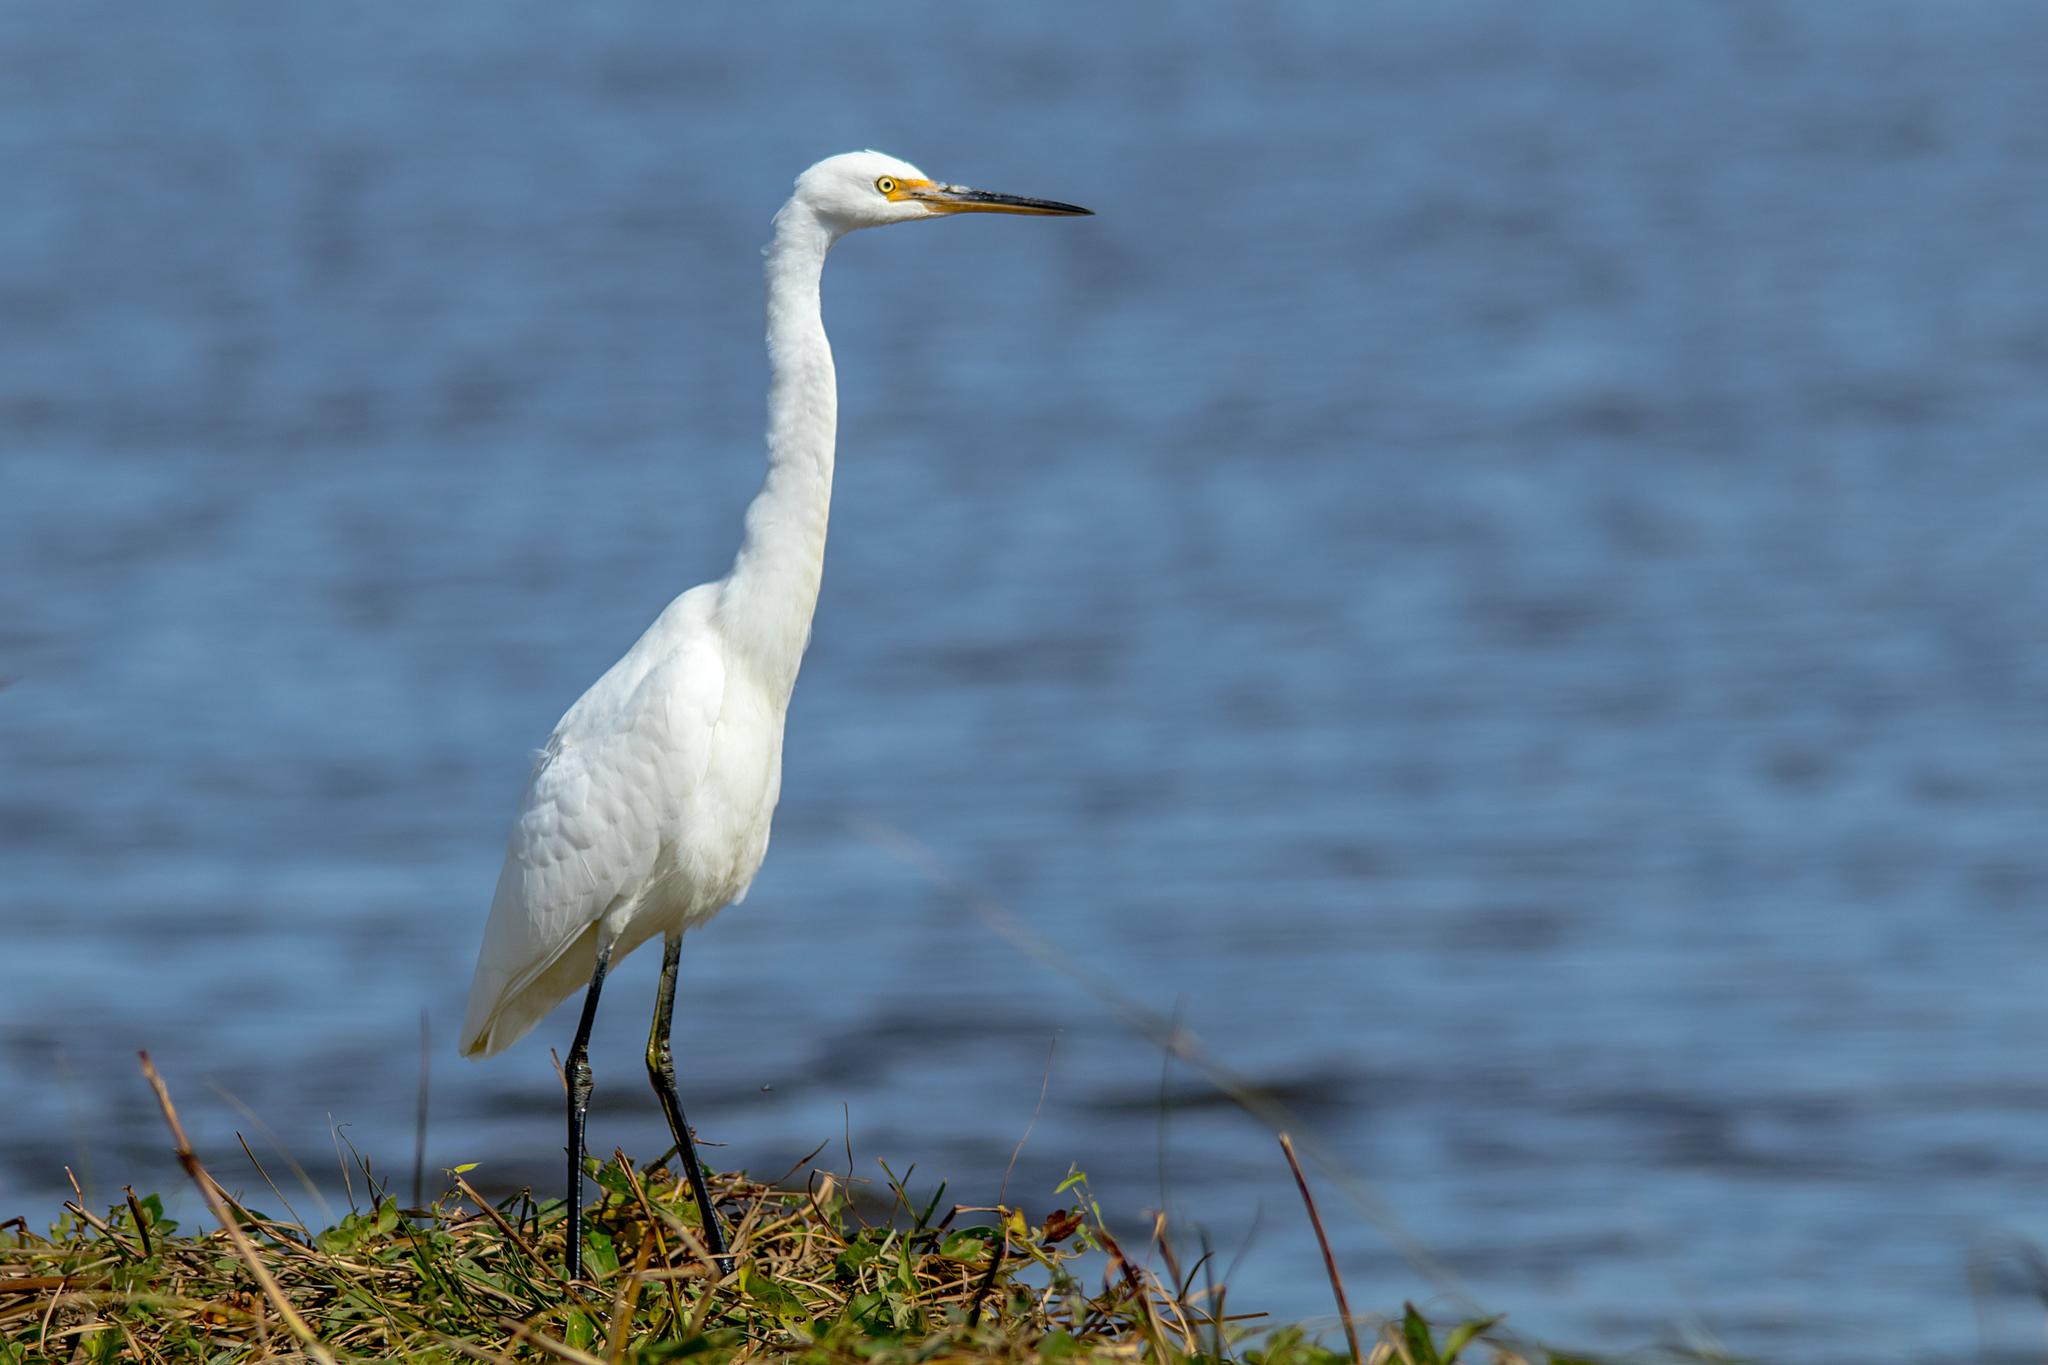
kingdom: Animalia
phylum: Chordata
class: Aves
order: Pelecaniformes
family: Ardeidae
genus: Egretta
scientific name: Egretta garzetta
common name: Little egret
